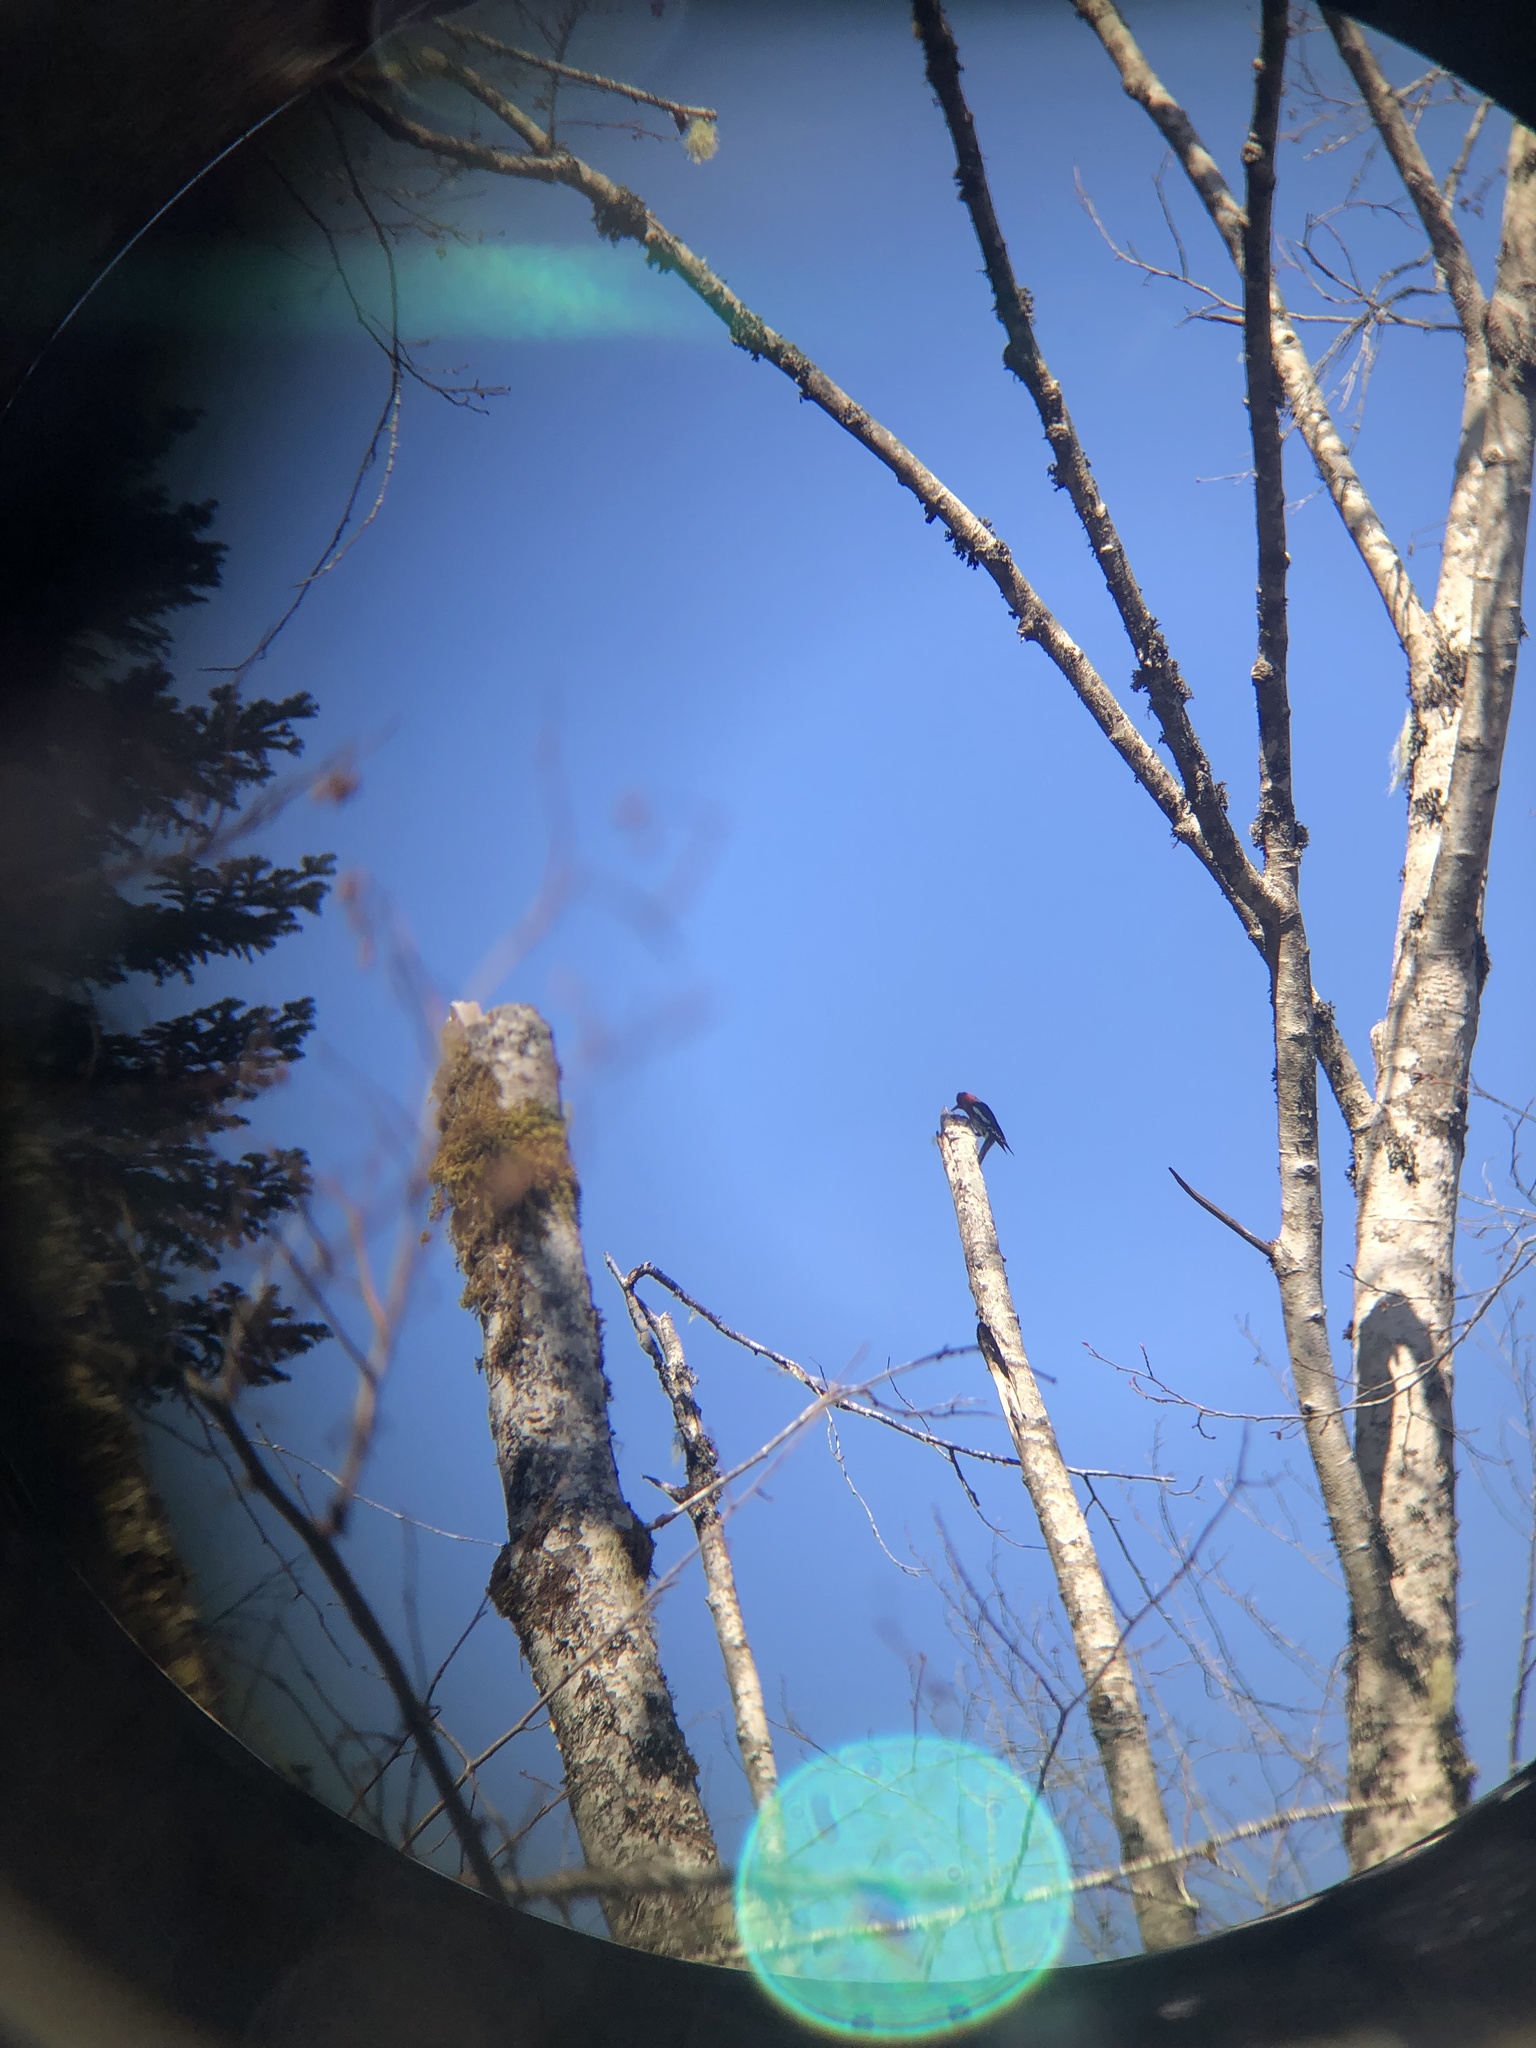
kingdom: Animalia
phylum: Chordata
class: Aves
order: Piciformes
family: Picidae
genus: Sphyrapicus
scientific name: Sphyrapicus ruber
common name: Red-breasted sapsucker
